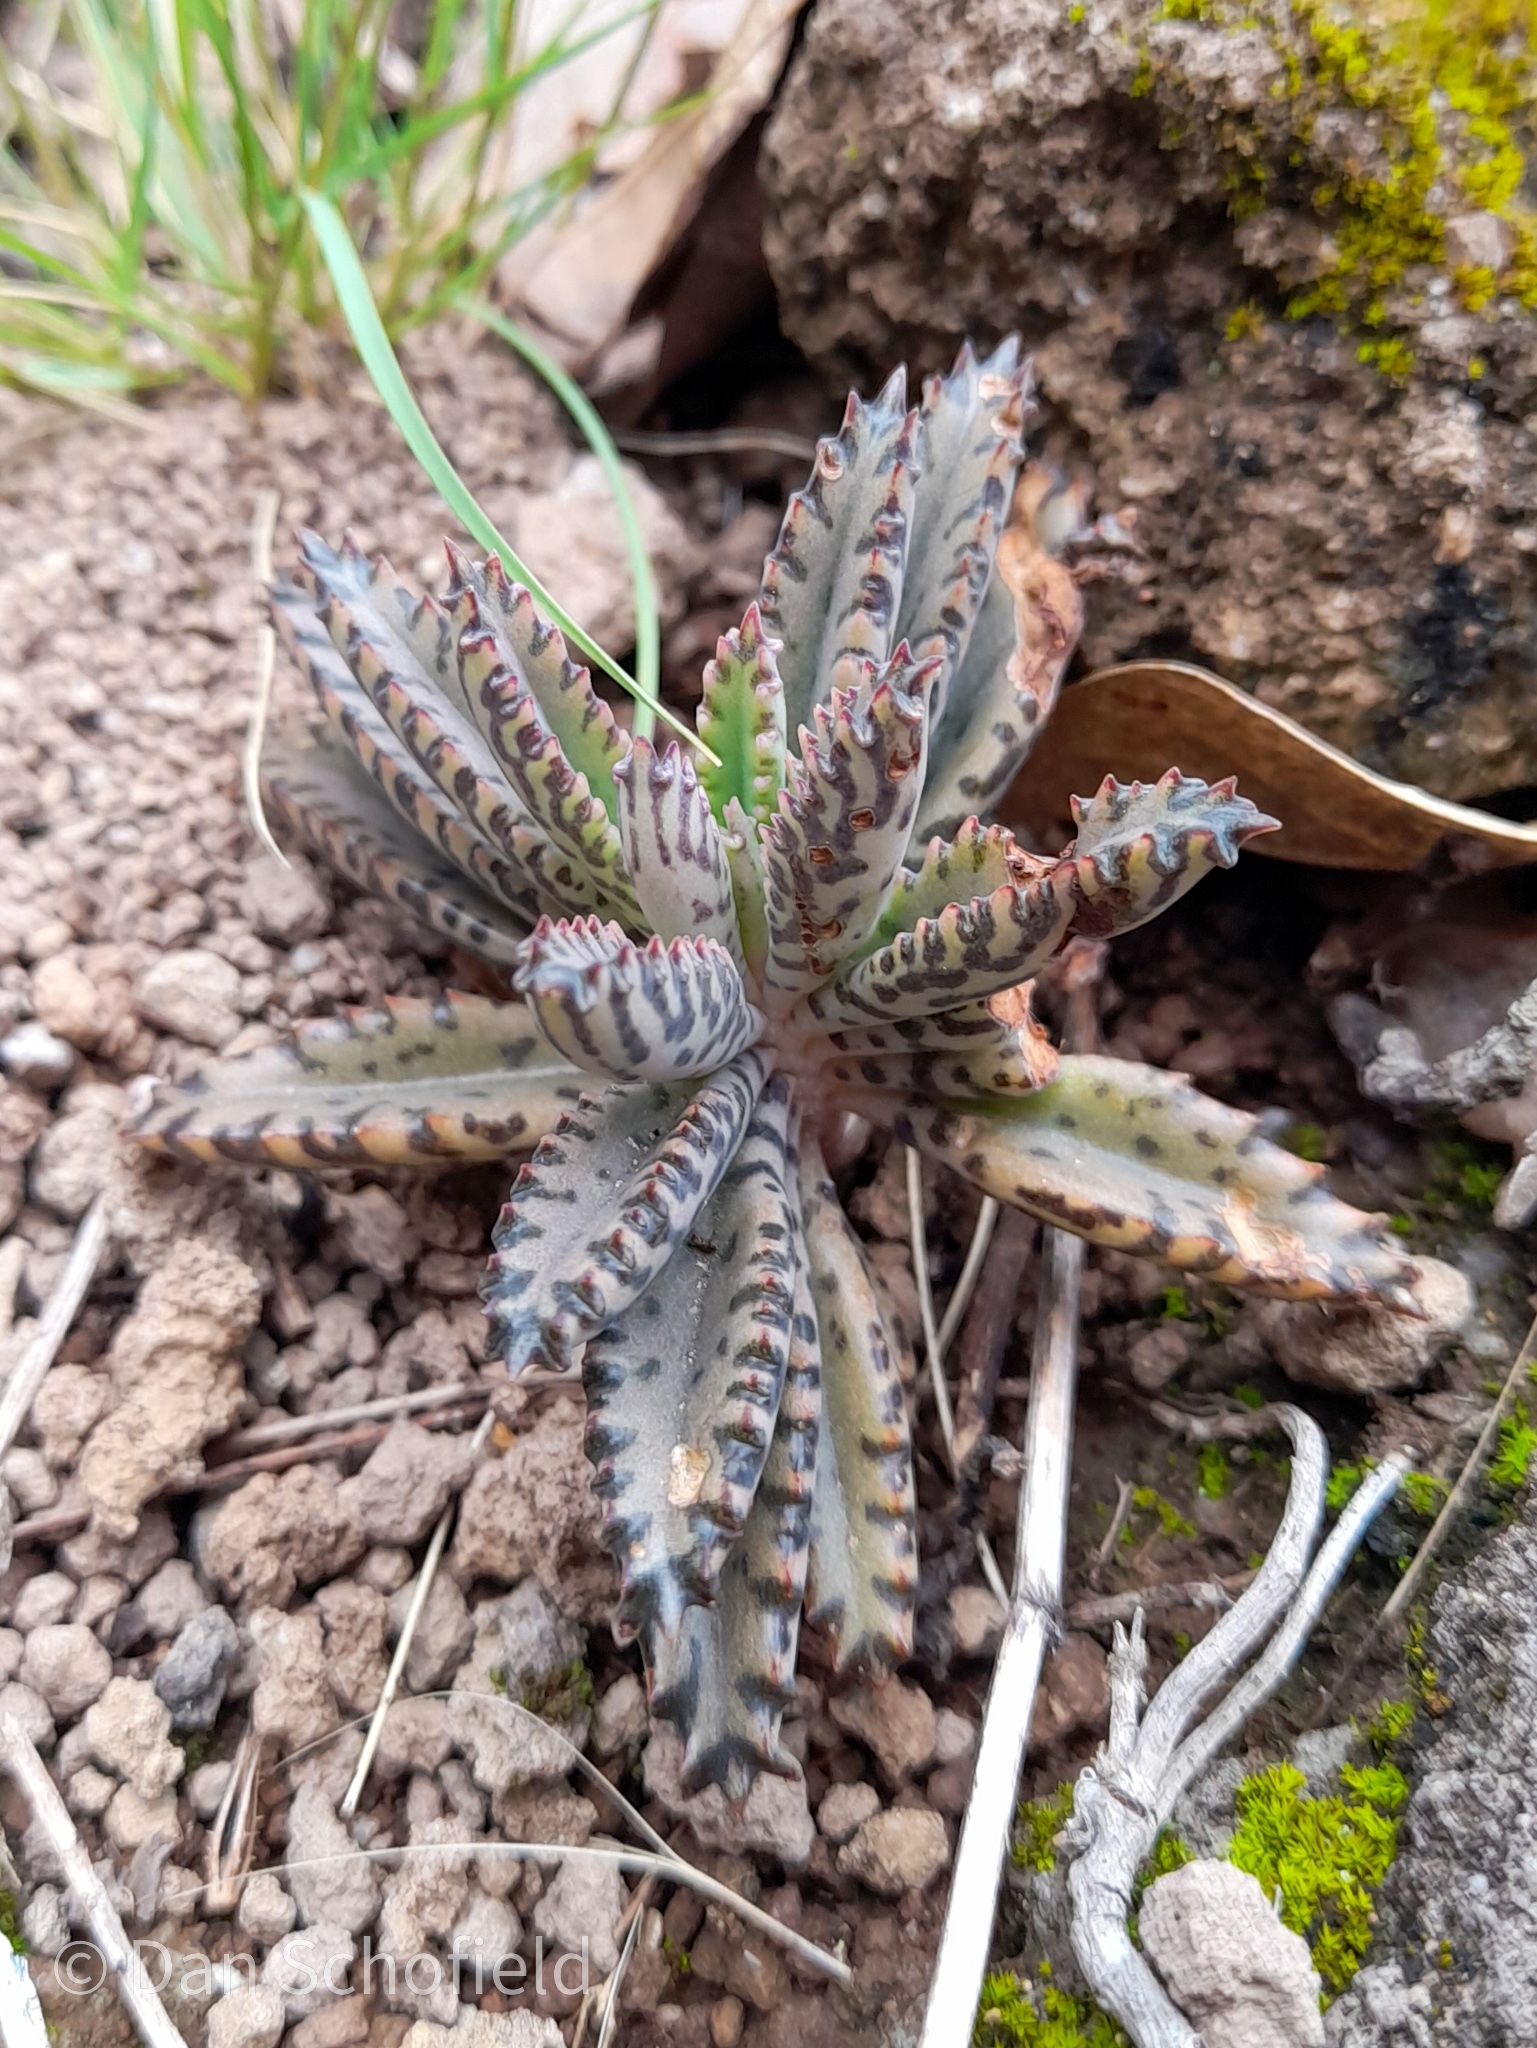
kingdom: Plantae
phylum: Tracheophyta
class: Magnoliopsida
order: Saxifragales
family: Crassulaceae
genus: Kalanchoe
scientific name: Kalanchoe houghtonii
